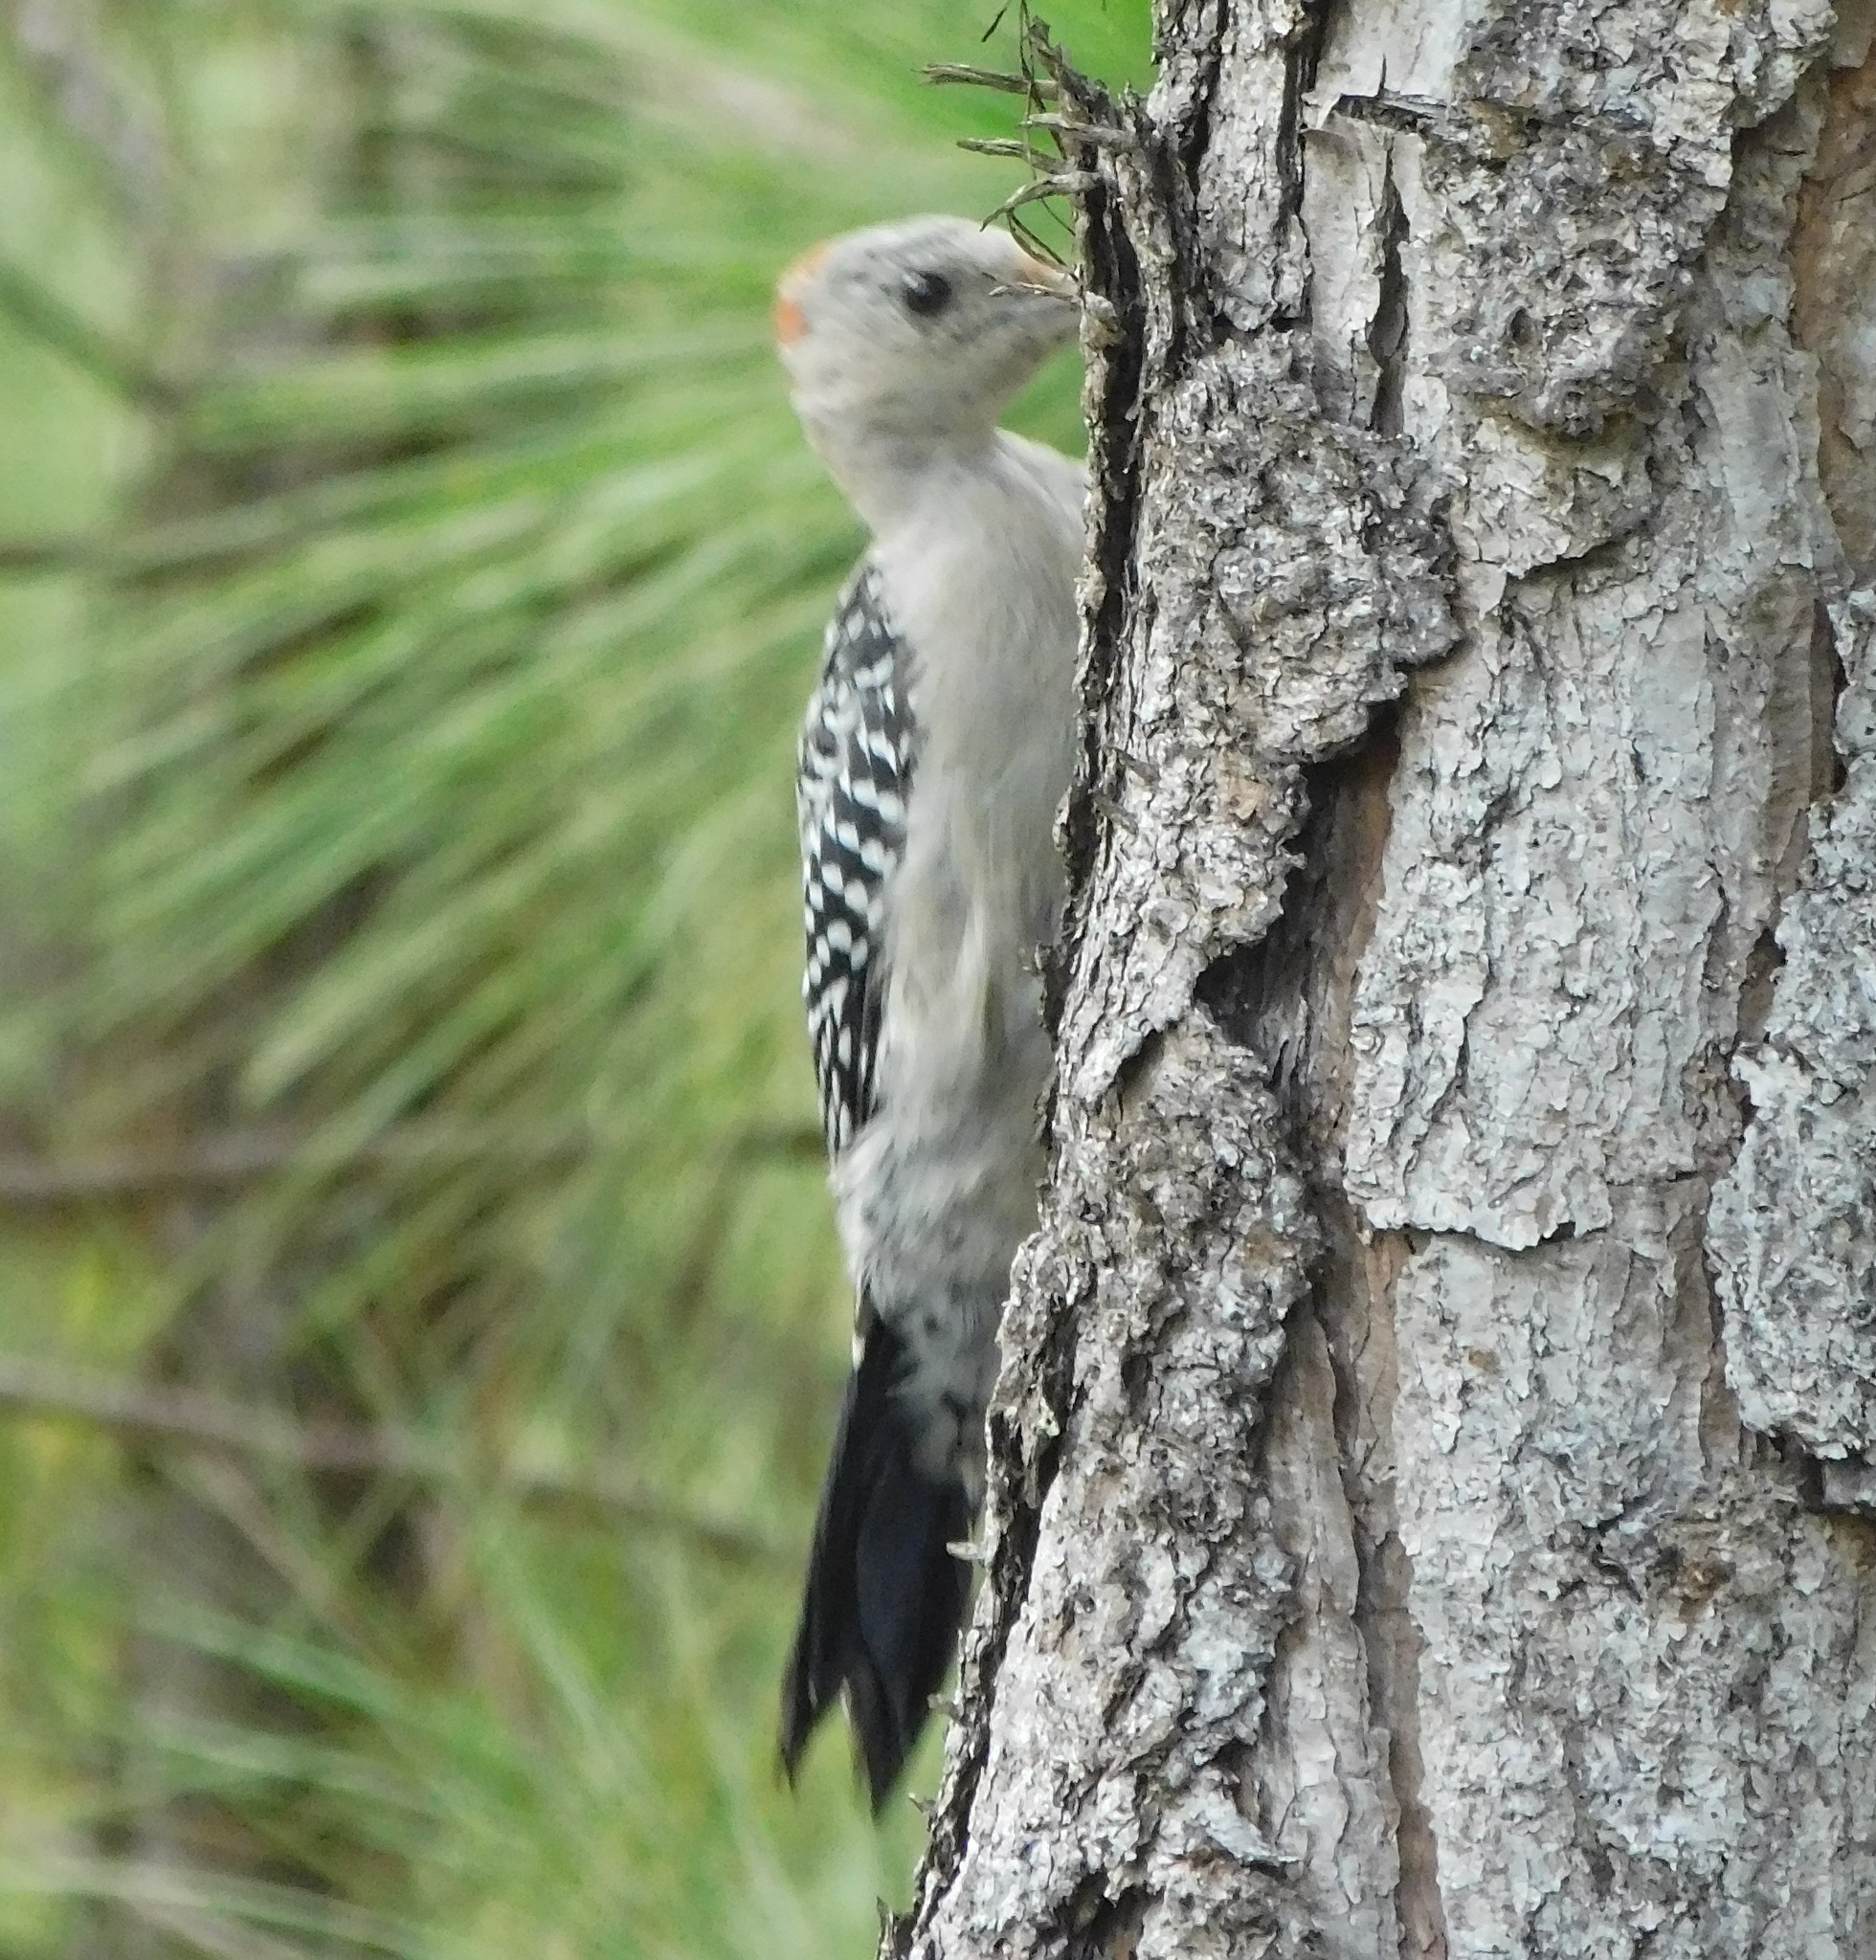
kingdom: Animalia
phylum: Chordata
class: Aves
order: Piciformes
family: Picidae
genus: Melanerpes
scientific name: Melanerpes carolinus
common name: Red-bellied woodpecker
